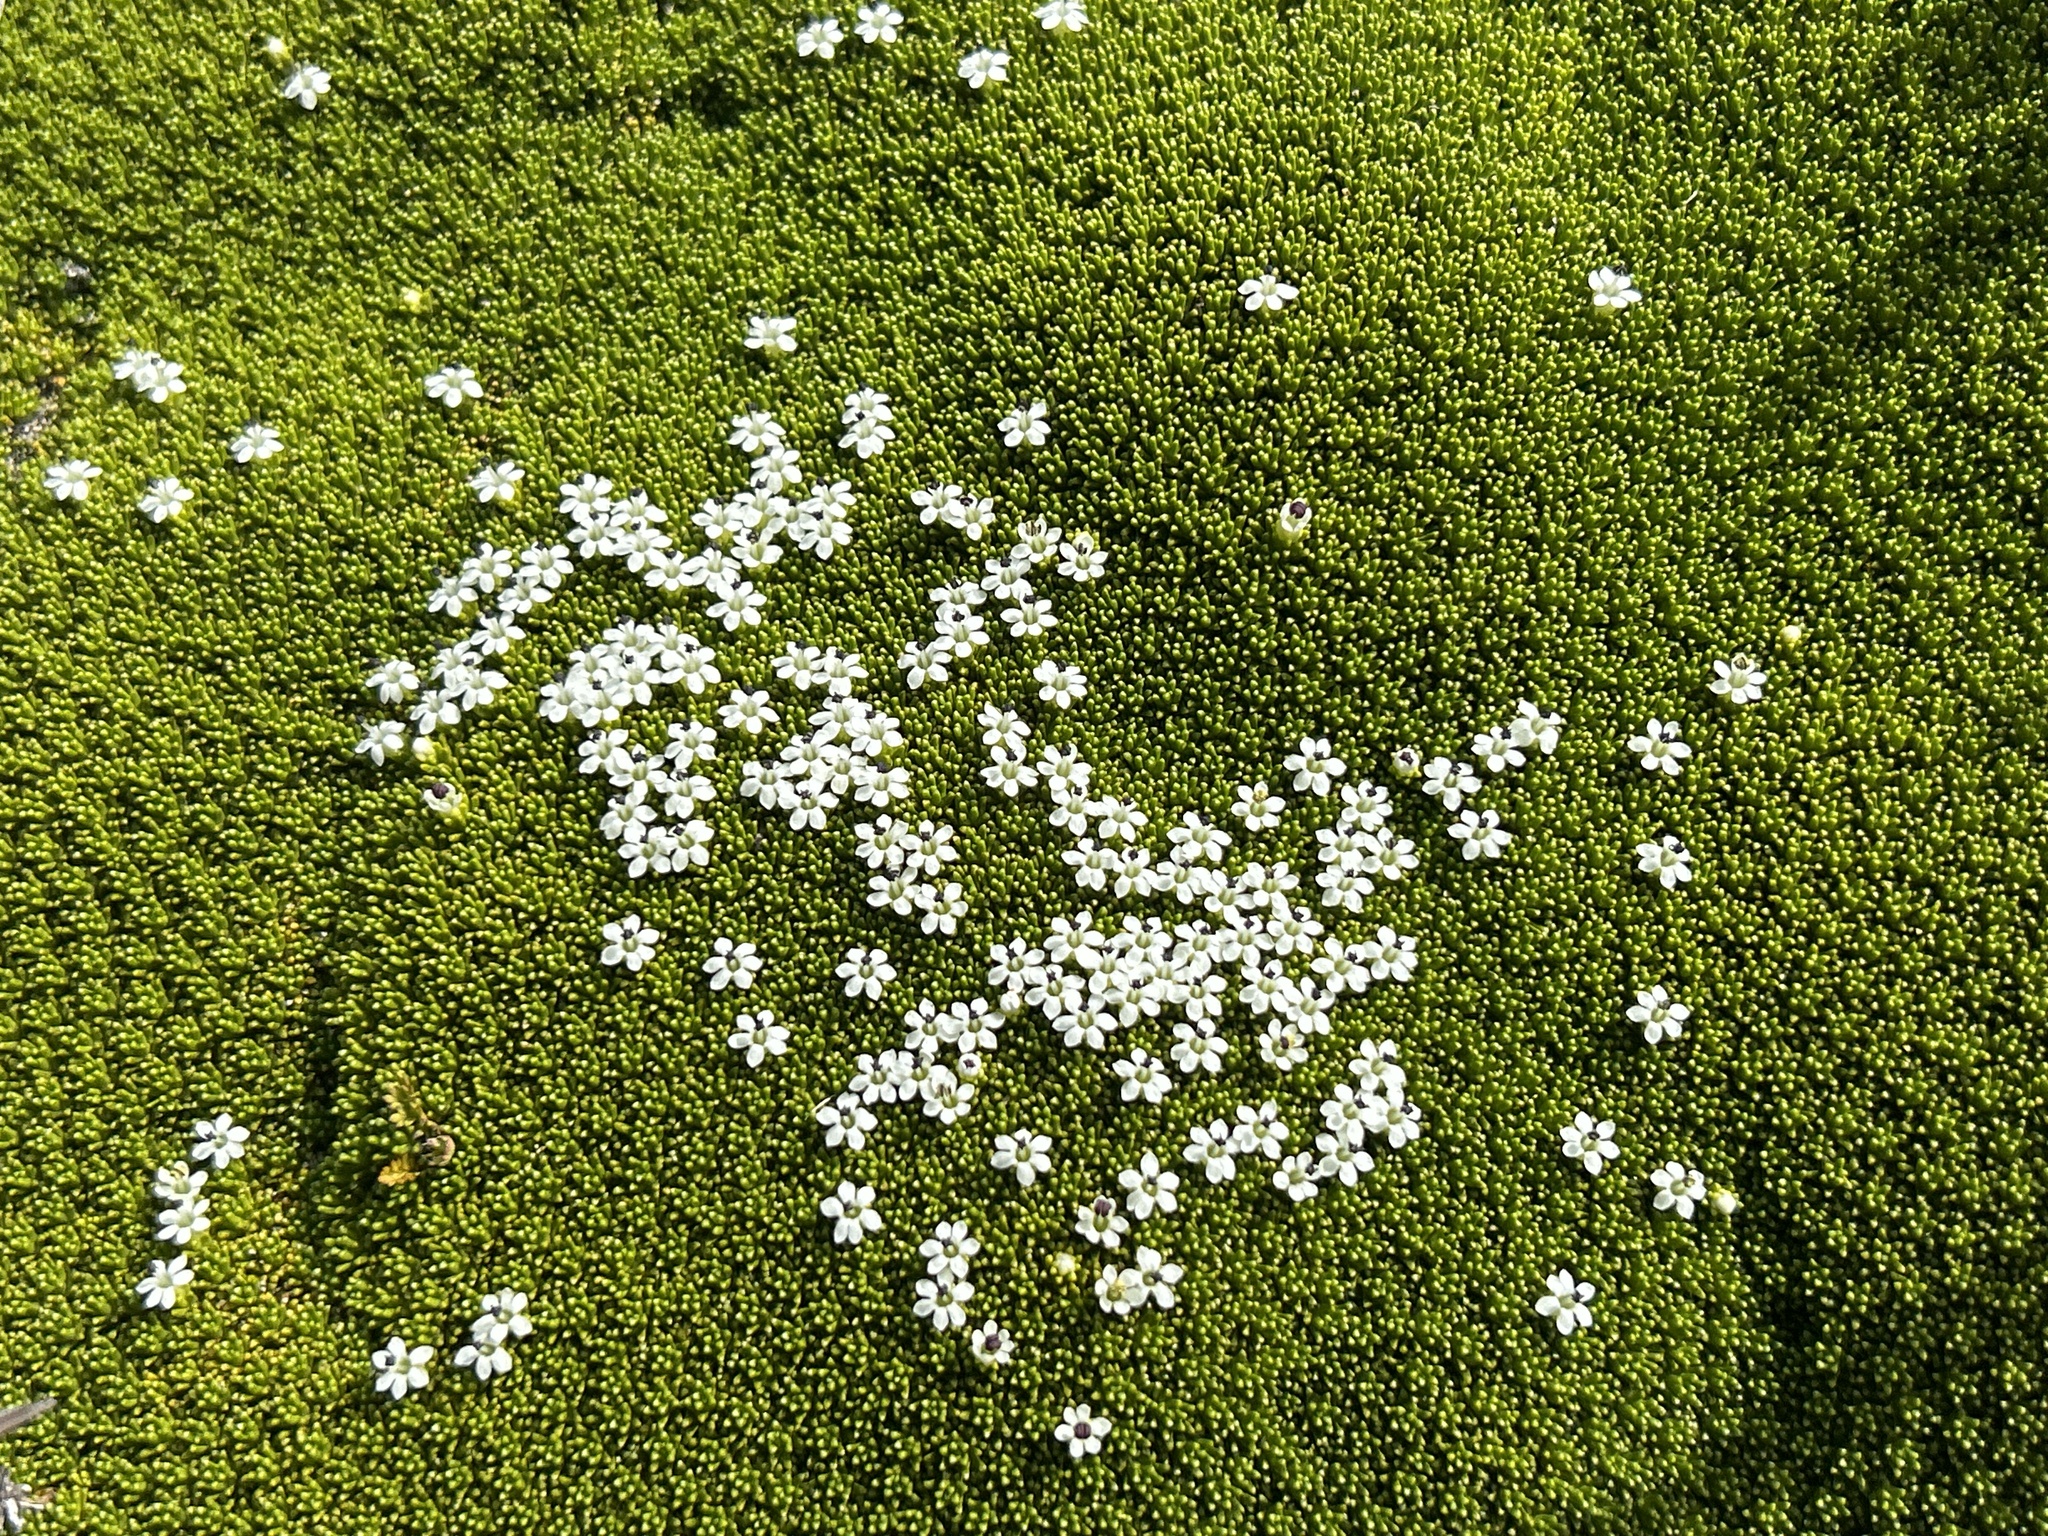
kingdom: Plantae
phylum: Tracheophyta
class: Magnoliopsida
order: Asterales
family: Stylidiaceae
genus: Phyllachne
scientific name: Phyllachne colensoi
